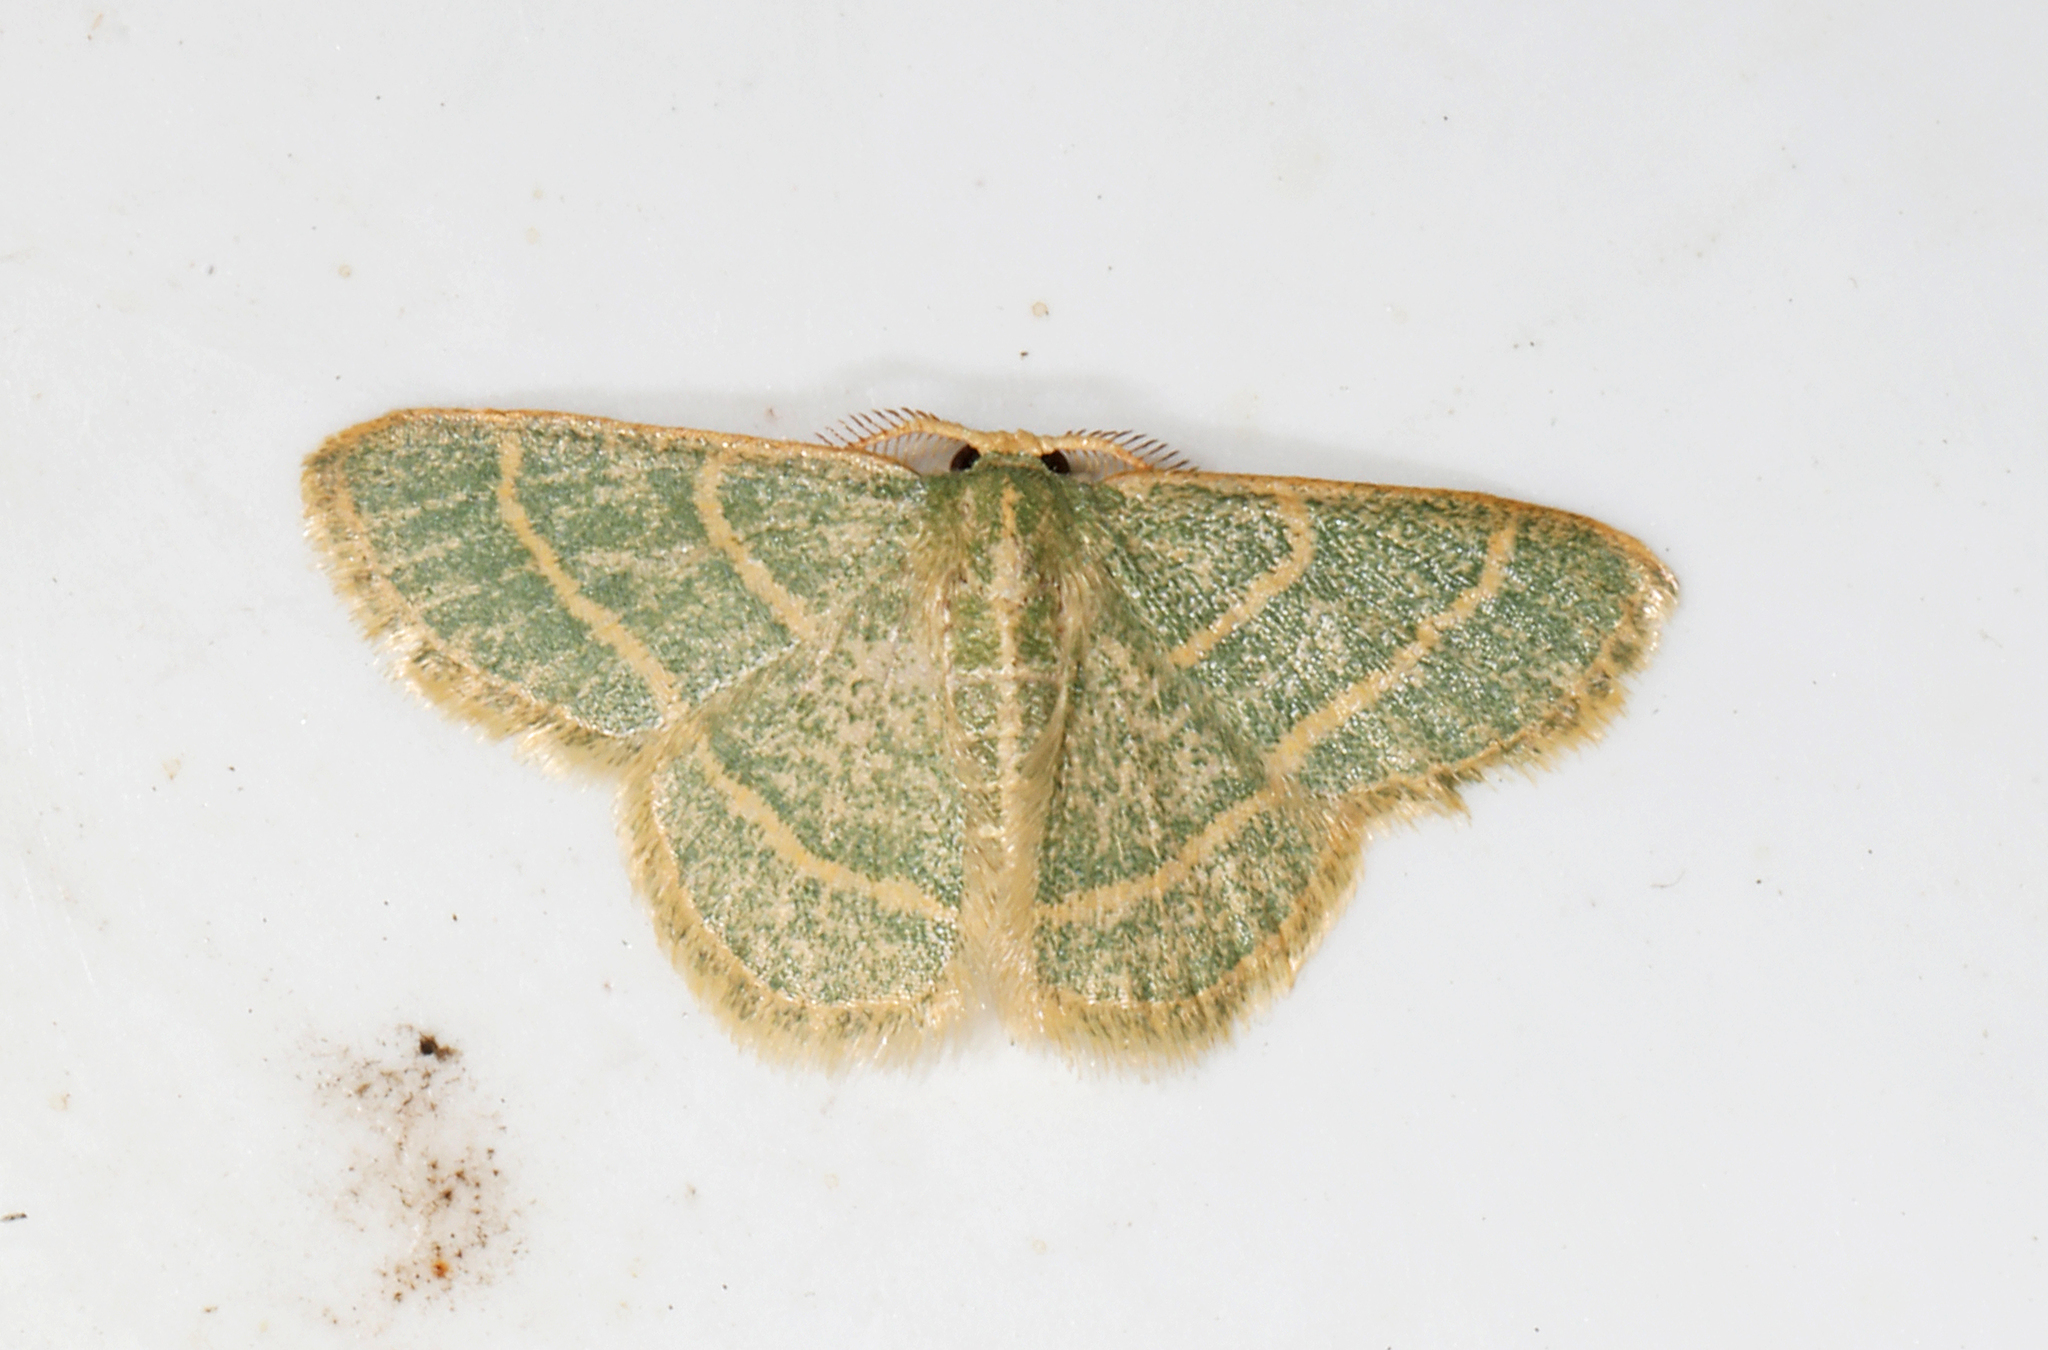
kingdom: Animalia
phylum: Arthropoda
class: Insecta
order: Lepidoptera
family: Geometridae
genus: Chlorochlamys
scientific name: Chlorochlamys chloroleucaria
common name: Blackberry looper
